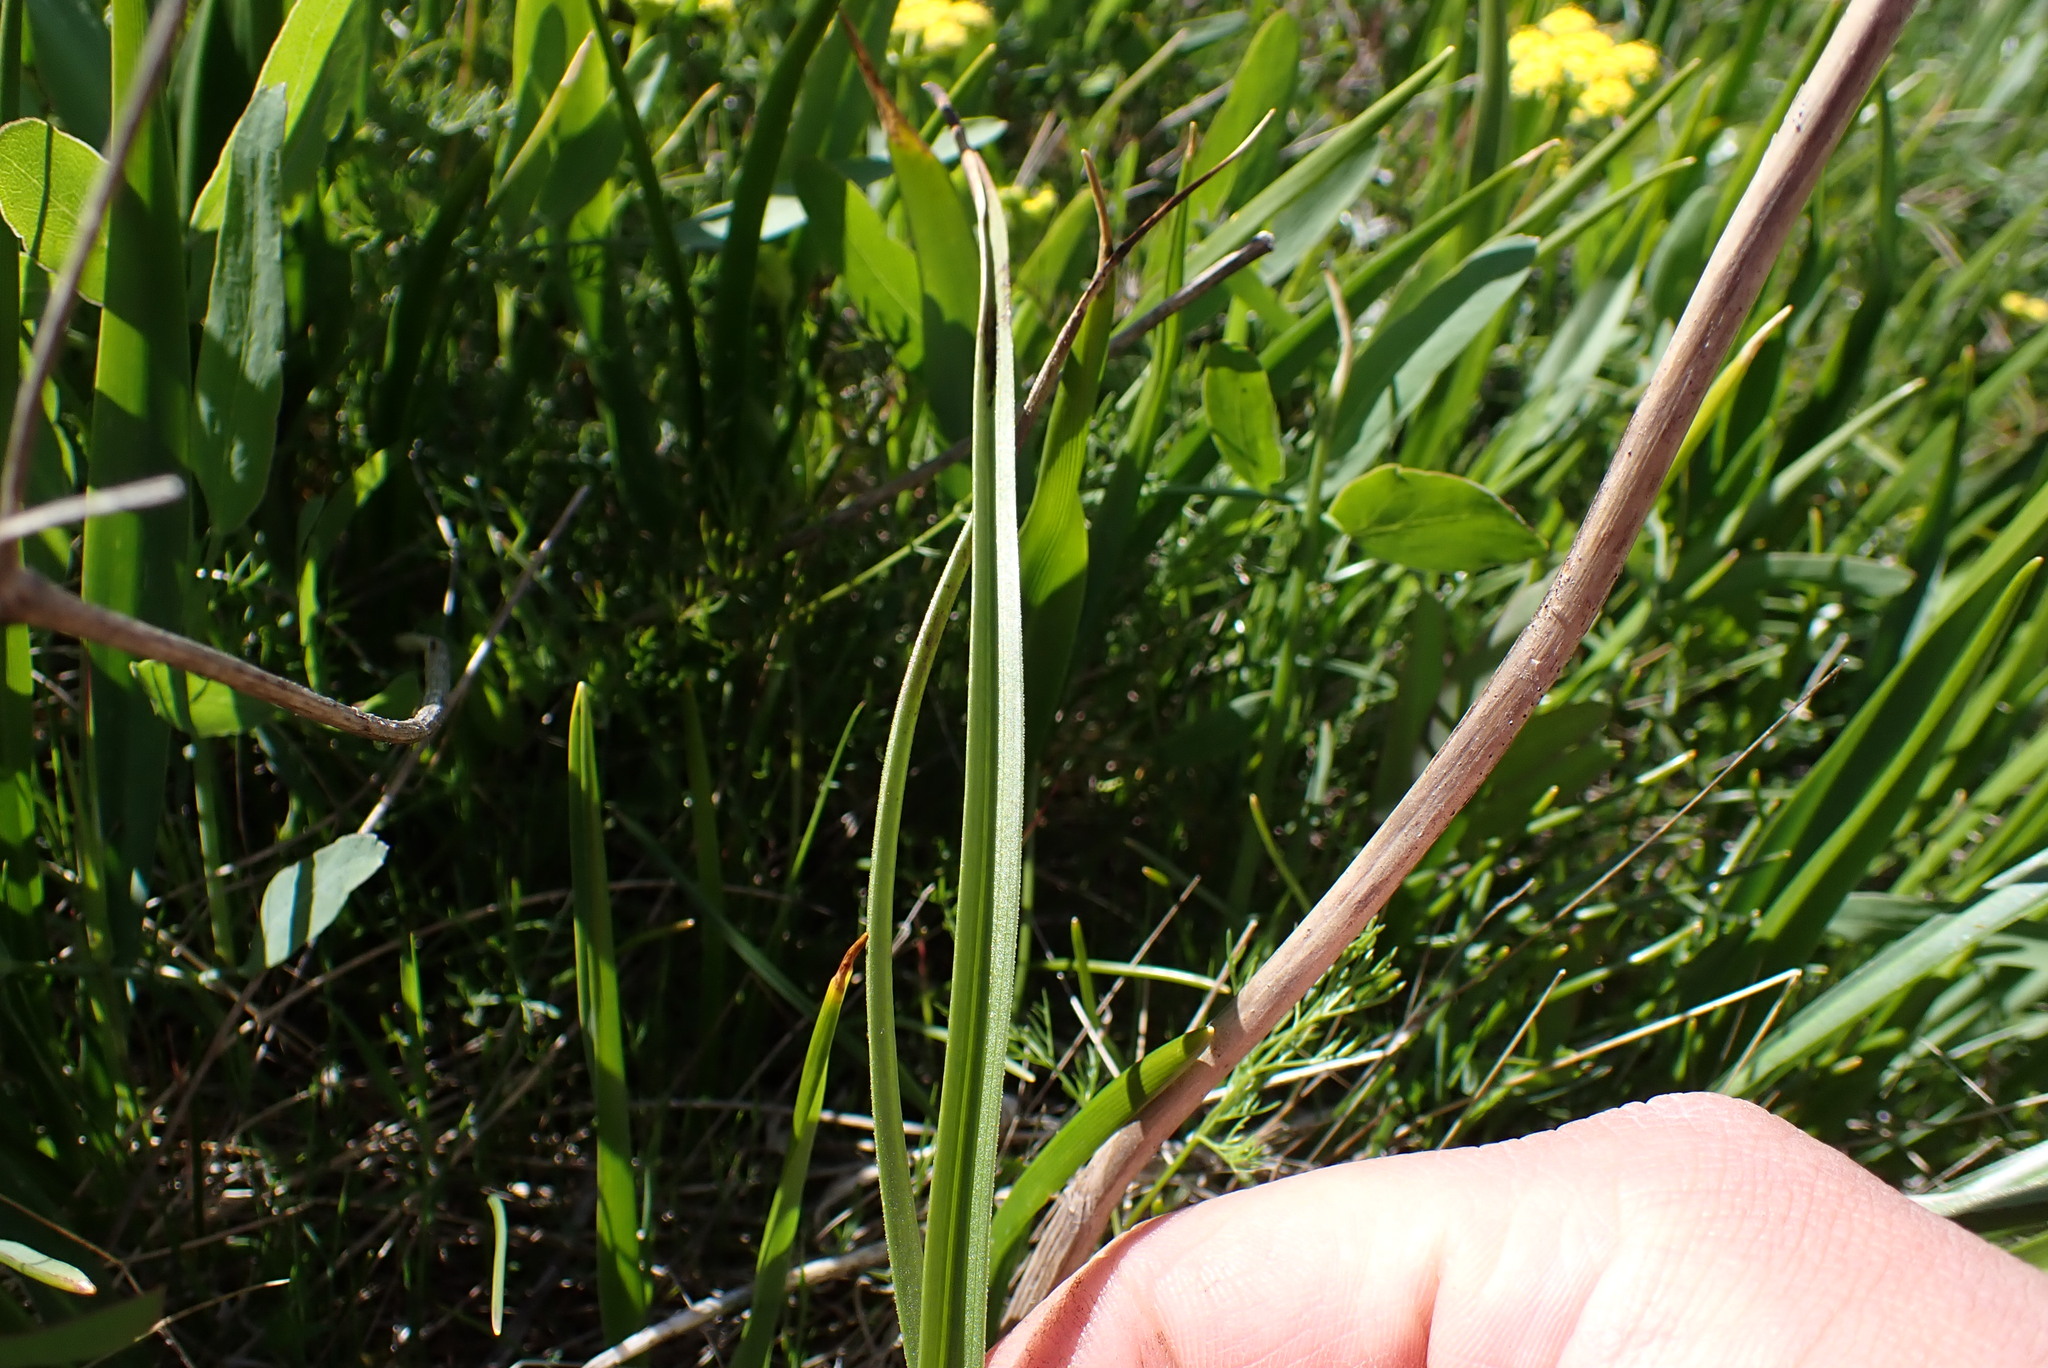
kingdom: Plantae
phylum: Tracheophyta
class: Liliopsida
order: Liliales
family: Melanthiaceae
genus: Toxicoscordion
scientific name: Toxicoscordion venenosum
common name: Meadow death camas
